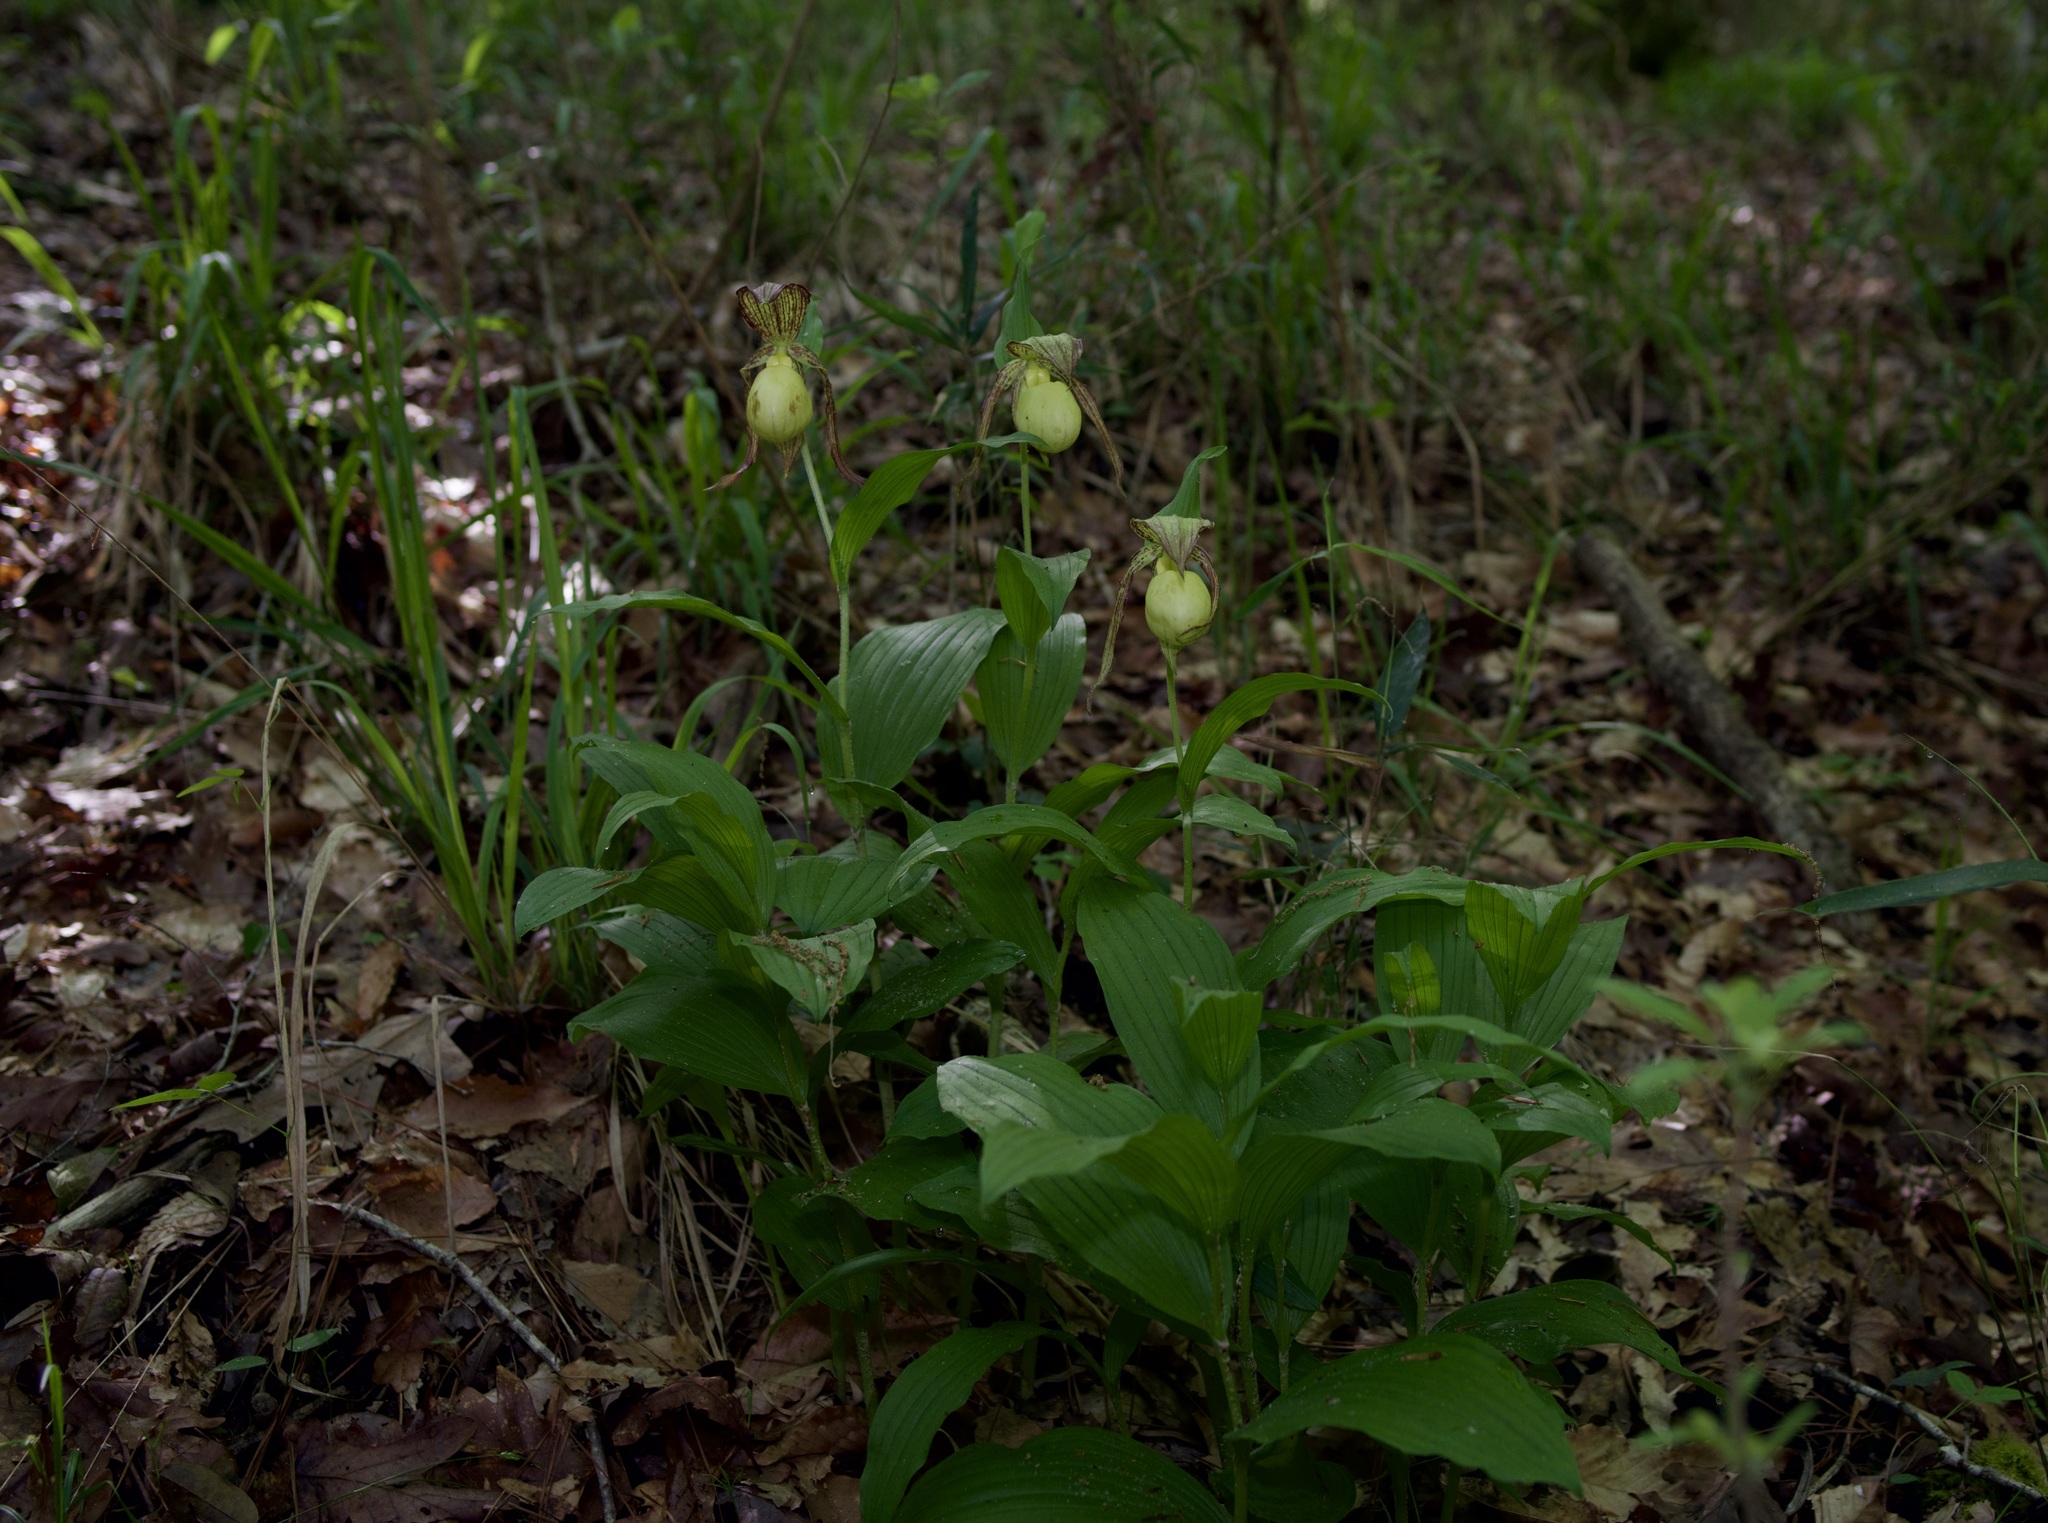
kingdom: Plantae
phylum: Tracheophyta
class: Liliopsida
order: Asparagales
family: Orchidaceae
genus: Cypripedium
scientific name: Cypripedium kentuckiense
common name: Kentucky lady's slipper
